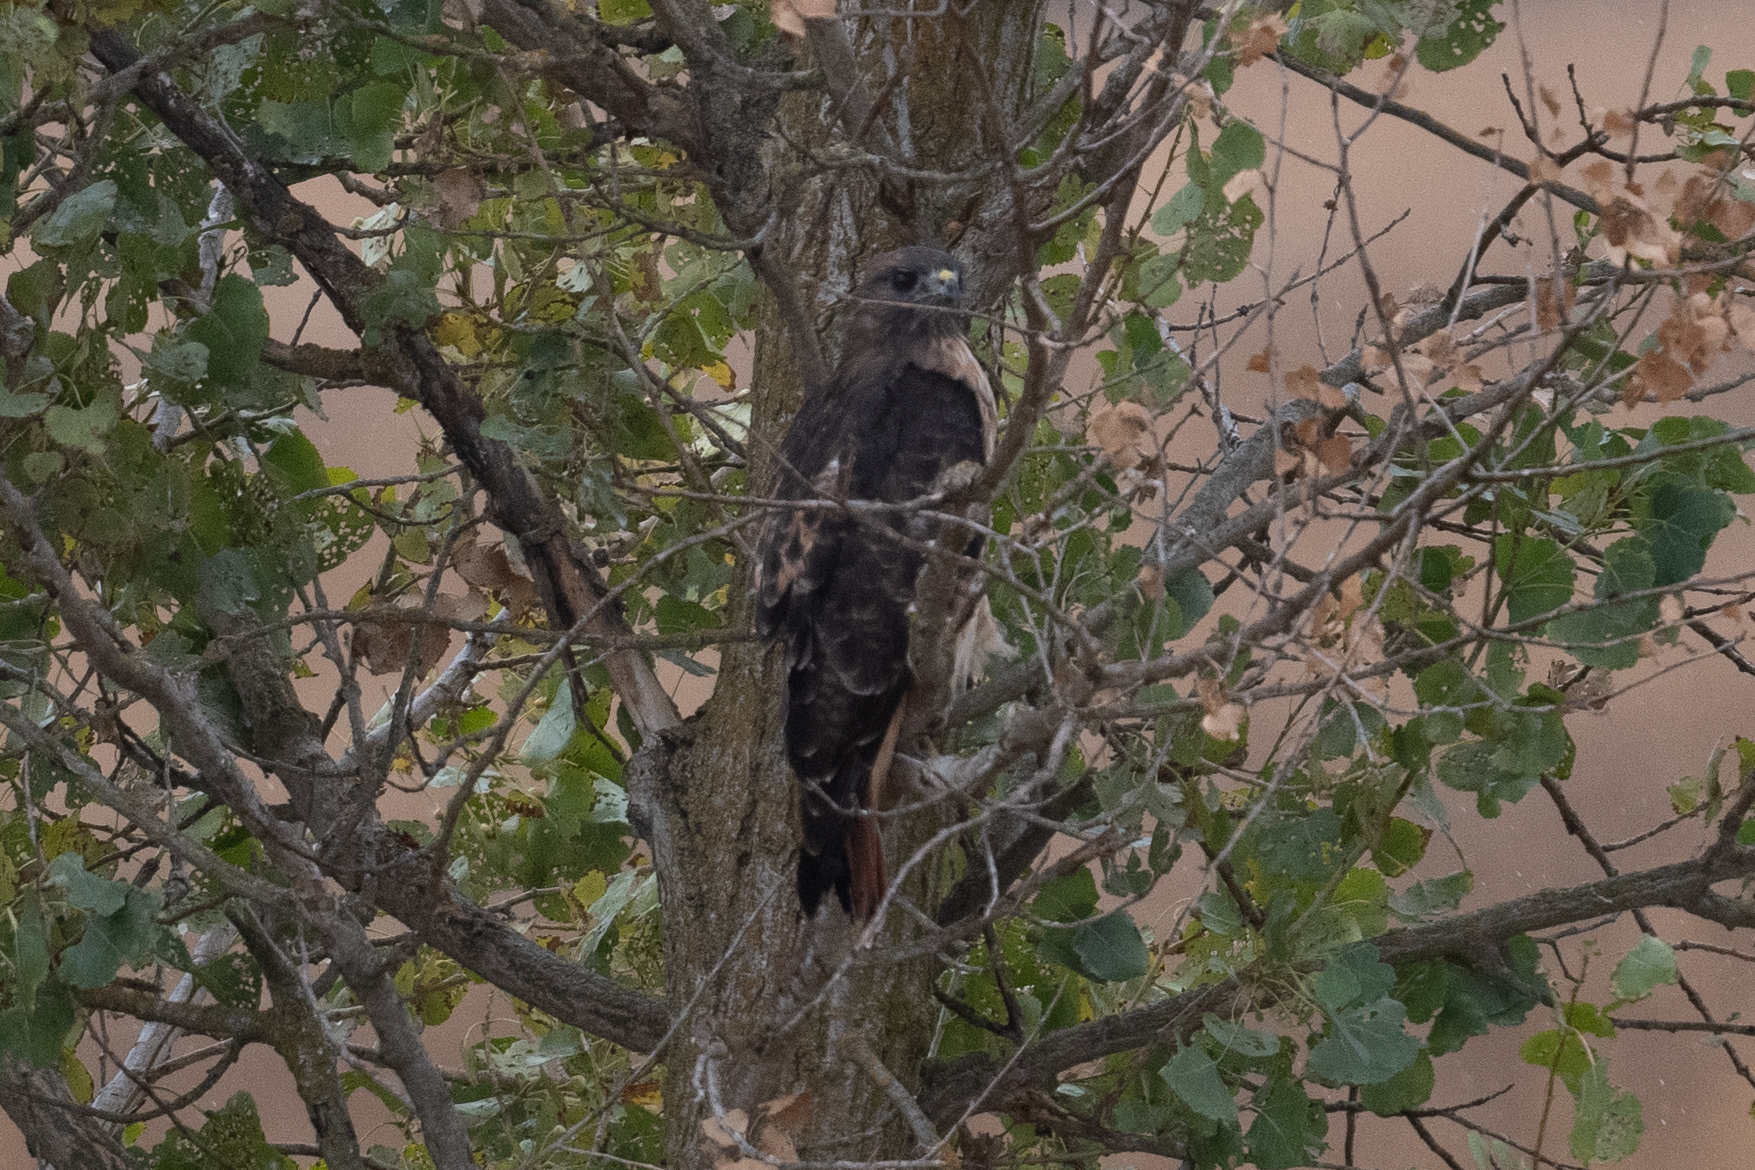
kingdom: Animalia
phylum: Chordata
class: Aves
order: Accipitriformes
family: Accipitridae
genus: Buteo
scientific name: Buteo jamaicensis
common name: Red-tailed hawk
